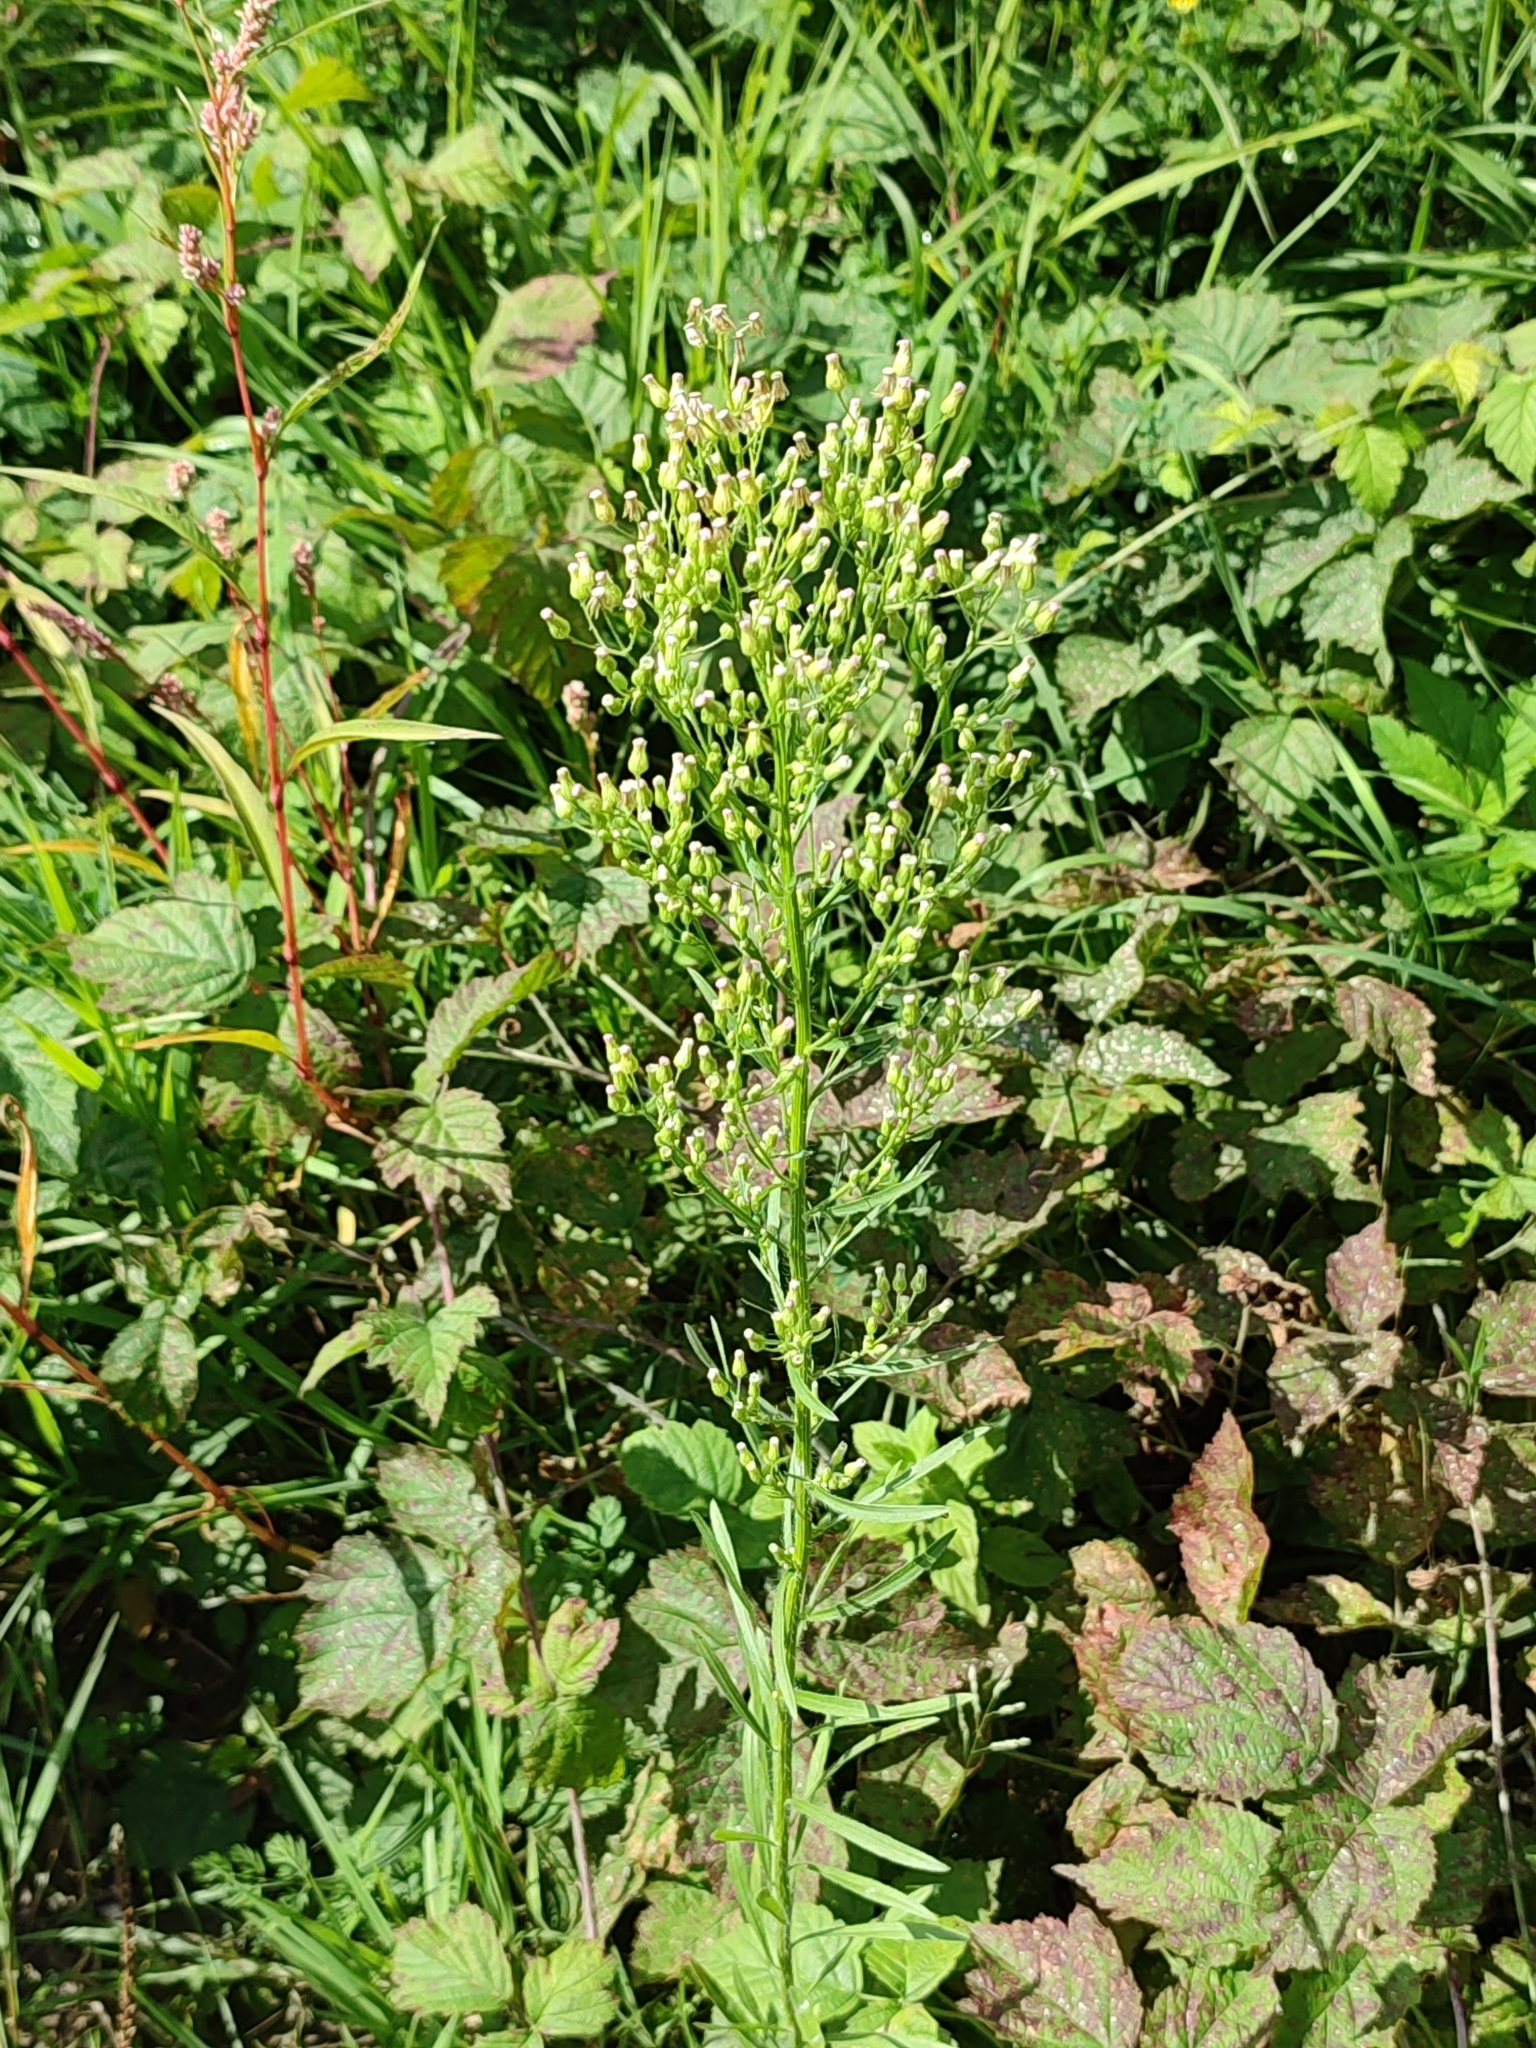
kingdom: Plantae
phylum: Tracheophyta
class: Magnoliopsida
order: Asterales
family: Asteraceae
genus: Erigeron
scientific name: Erigeron canadensis
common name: Canadian fleabane
